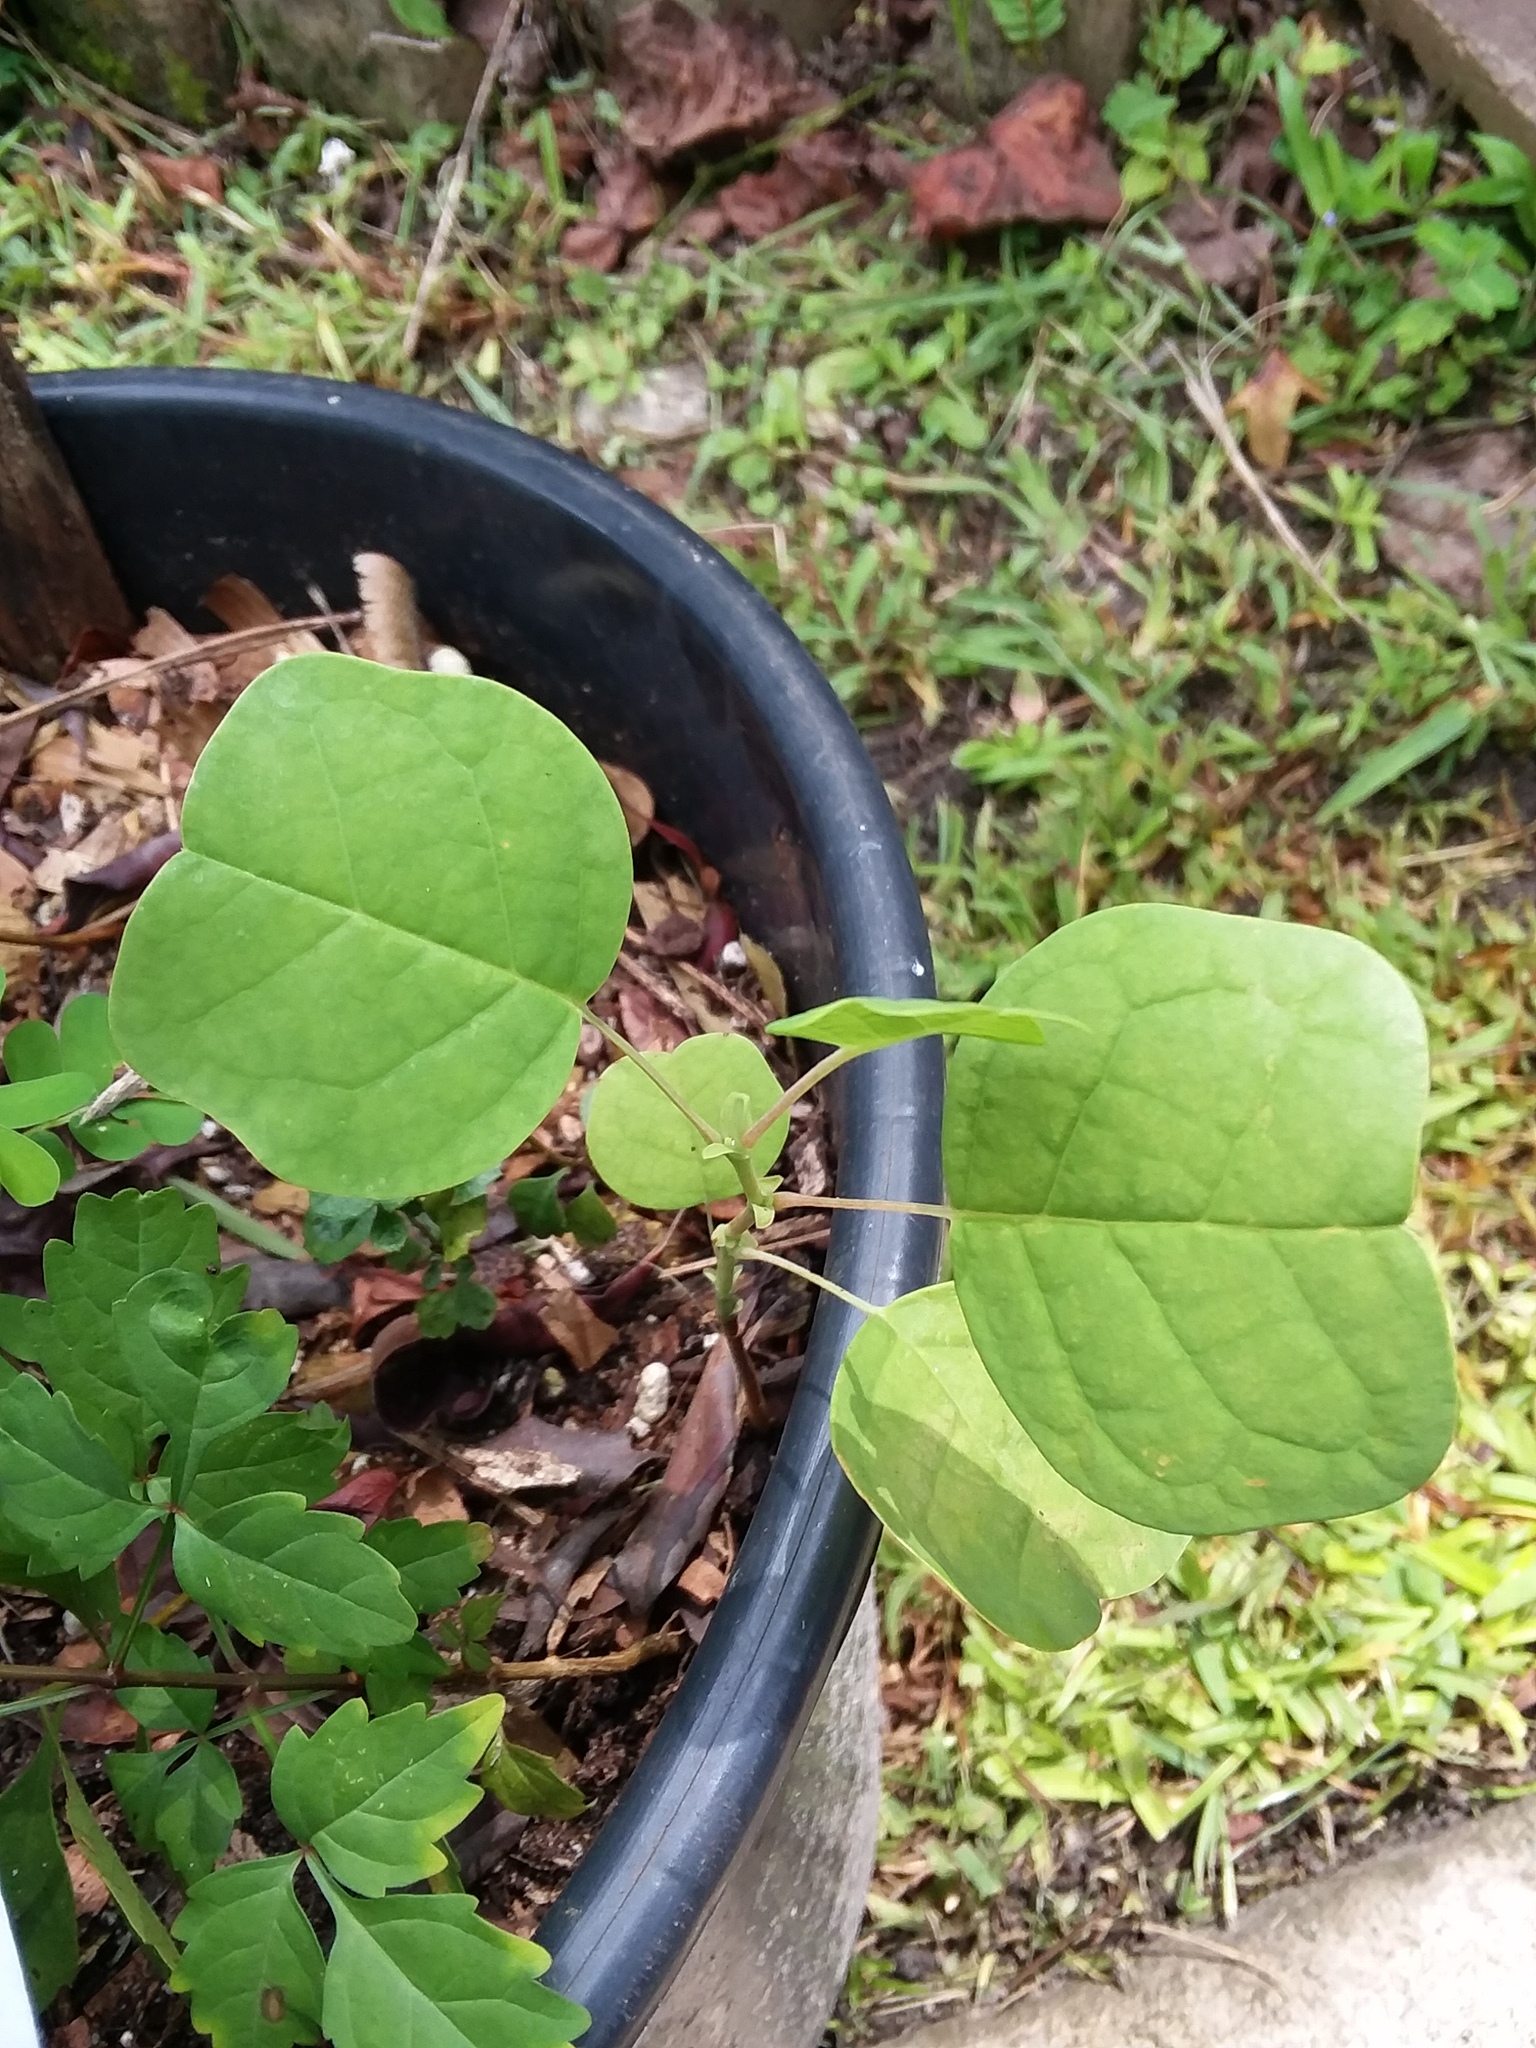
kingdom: Plantae
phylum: Tracheophyta
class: Magnoliopsida
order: Magnoliales
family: Magnoliaceae
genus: Liriodendron
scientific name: Liriodendron tulipifera
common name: Tulip tree
